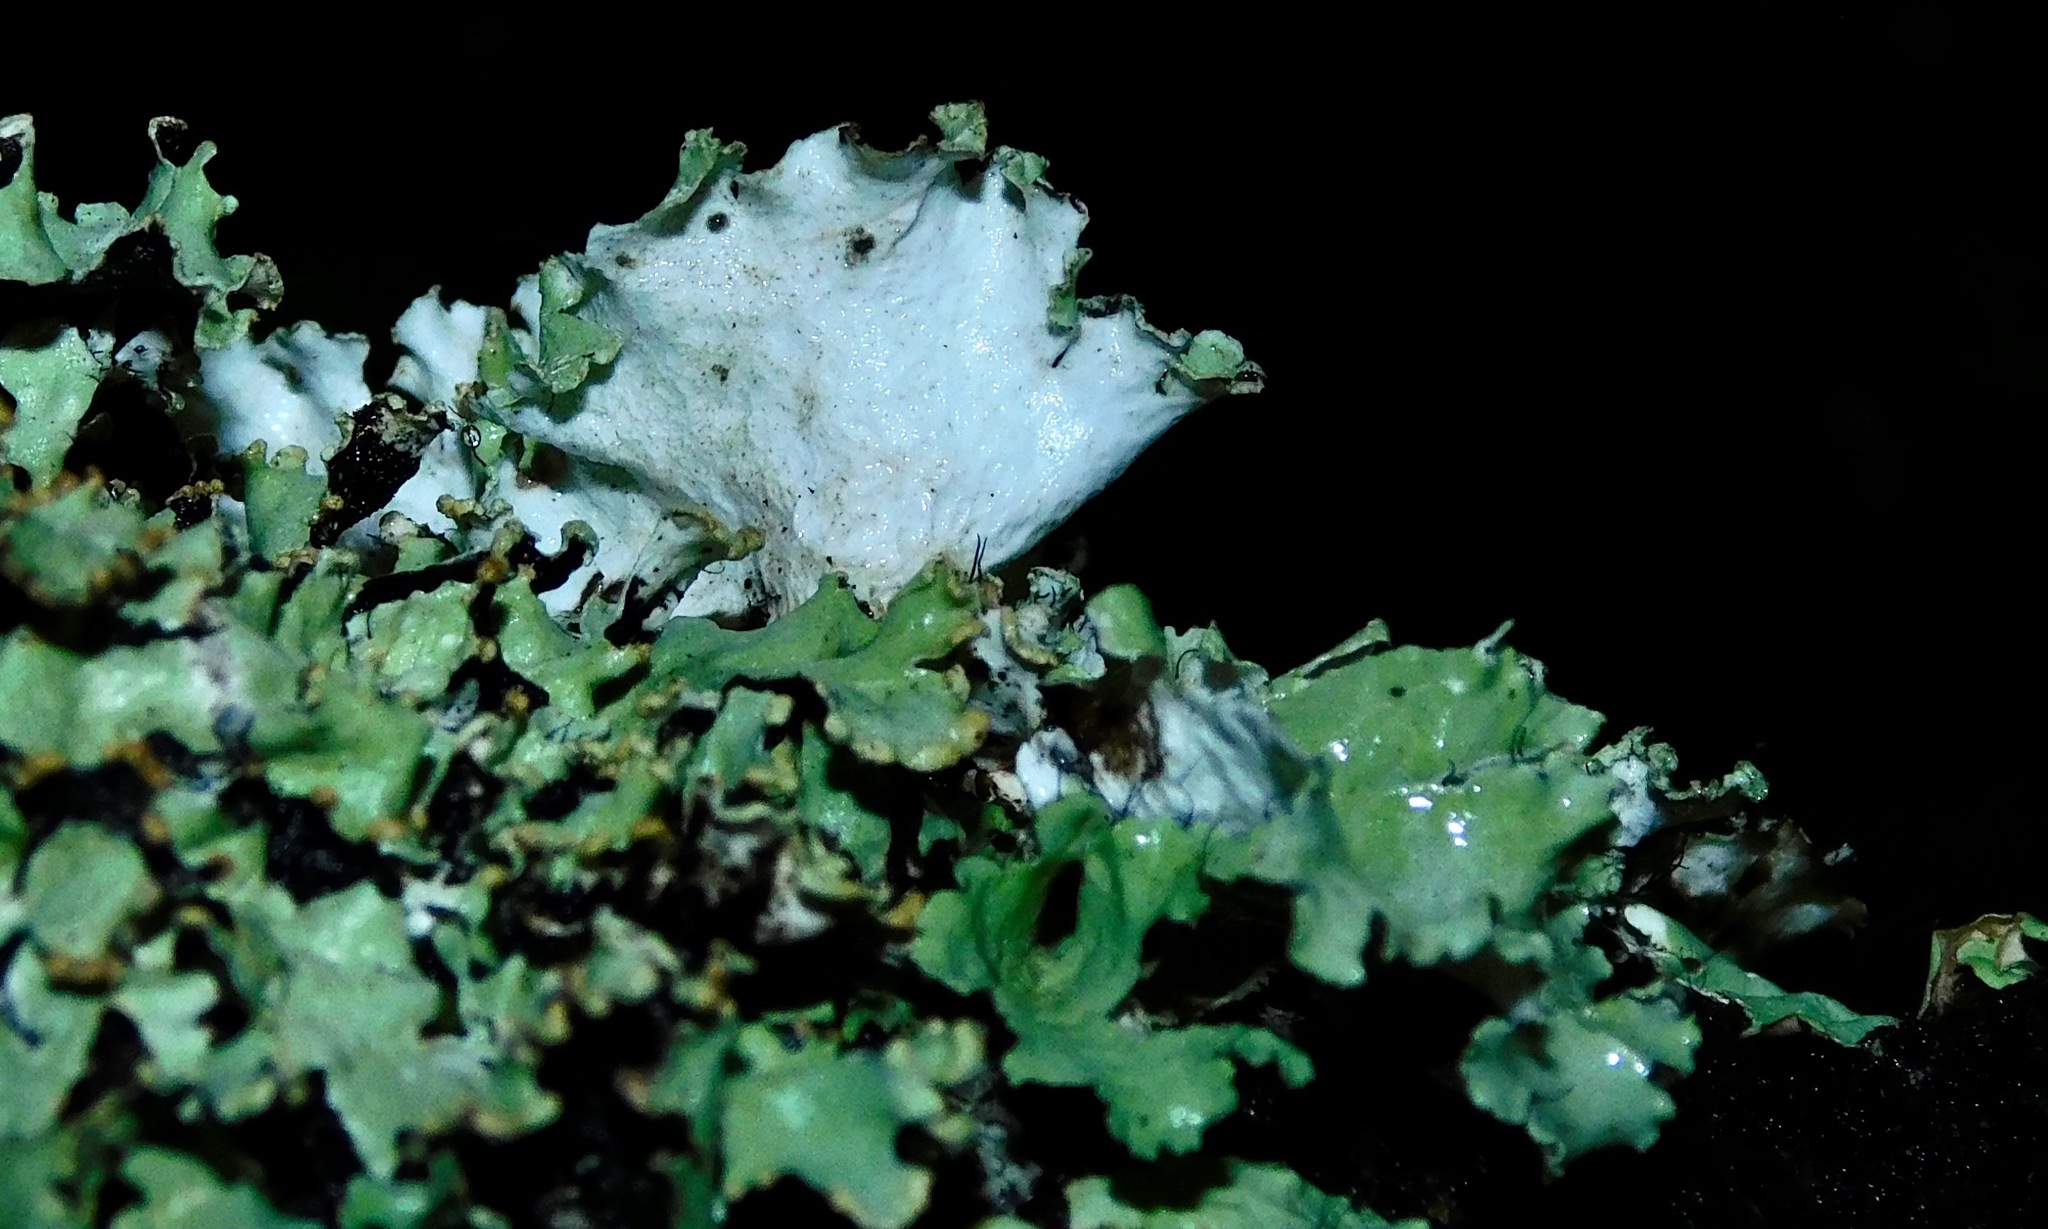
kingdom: Fungi
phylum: Ascomycota
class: Lecanoromycetes
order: Lecanorales
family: Parmeliaceae
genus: Parmotrema
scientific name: Parmotrema hypotropum
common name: Powdered ruffle lichen
